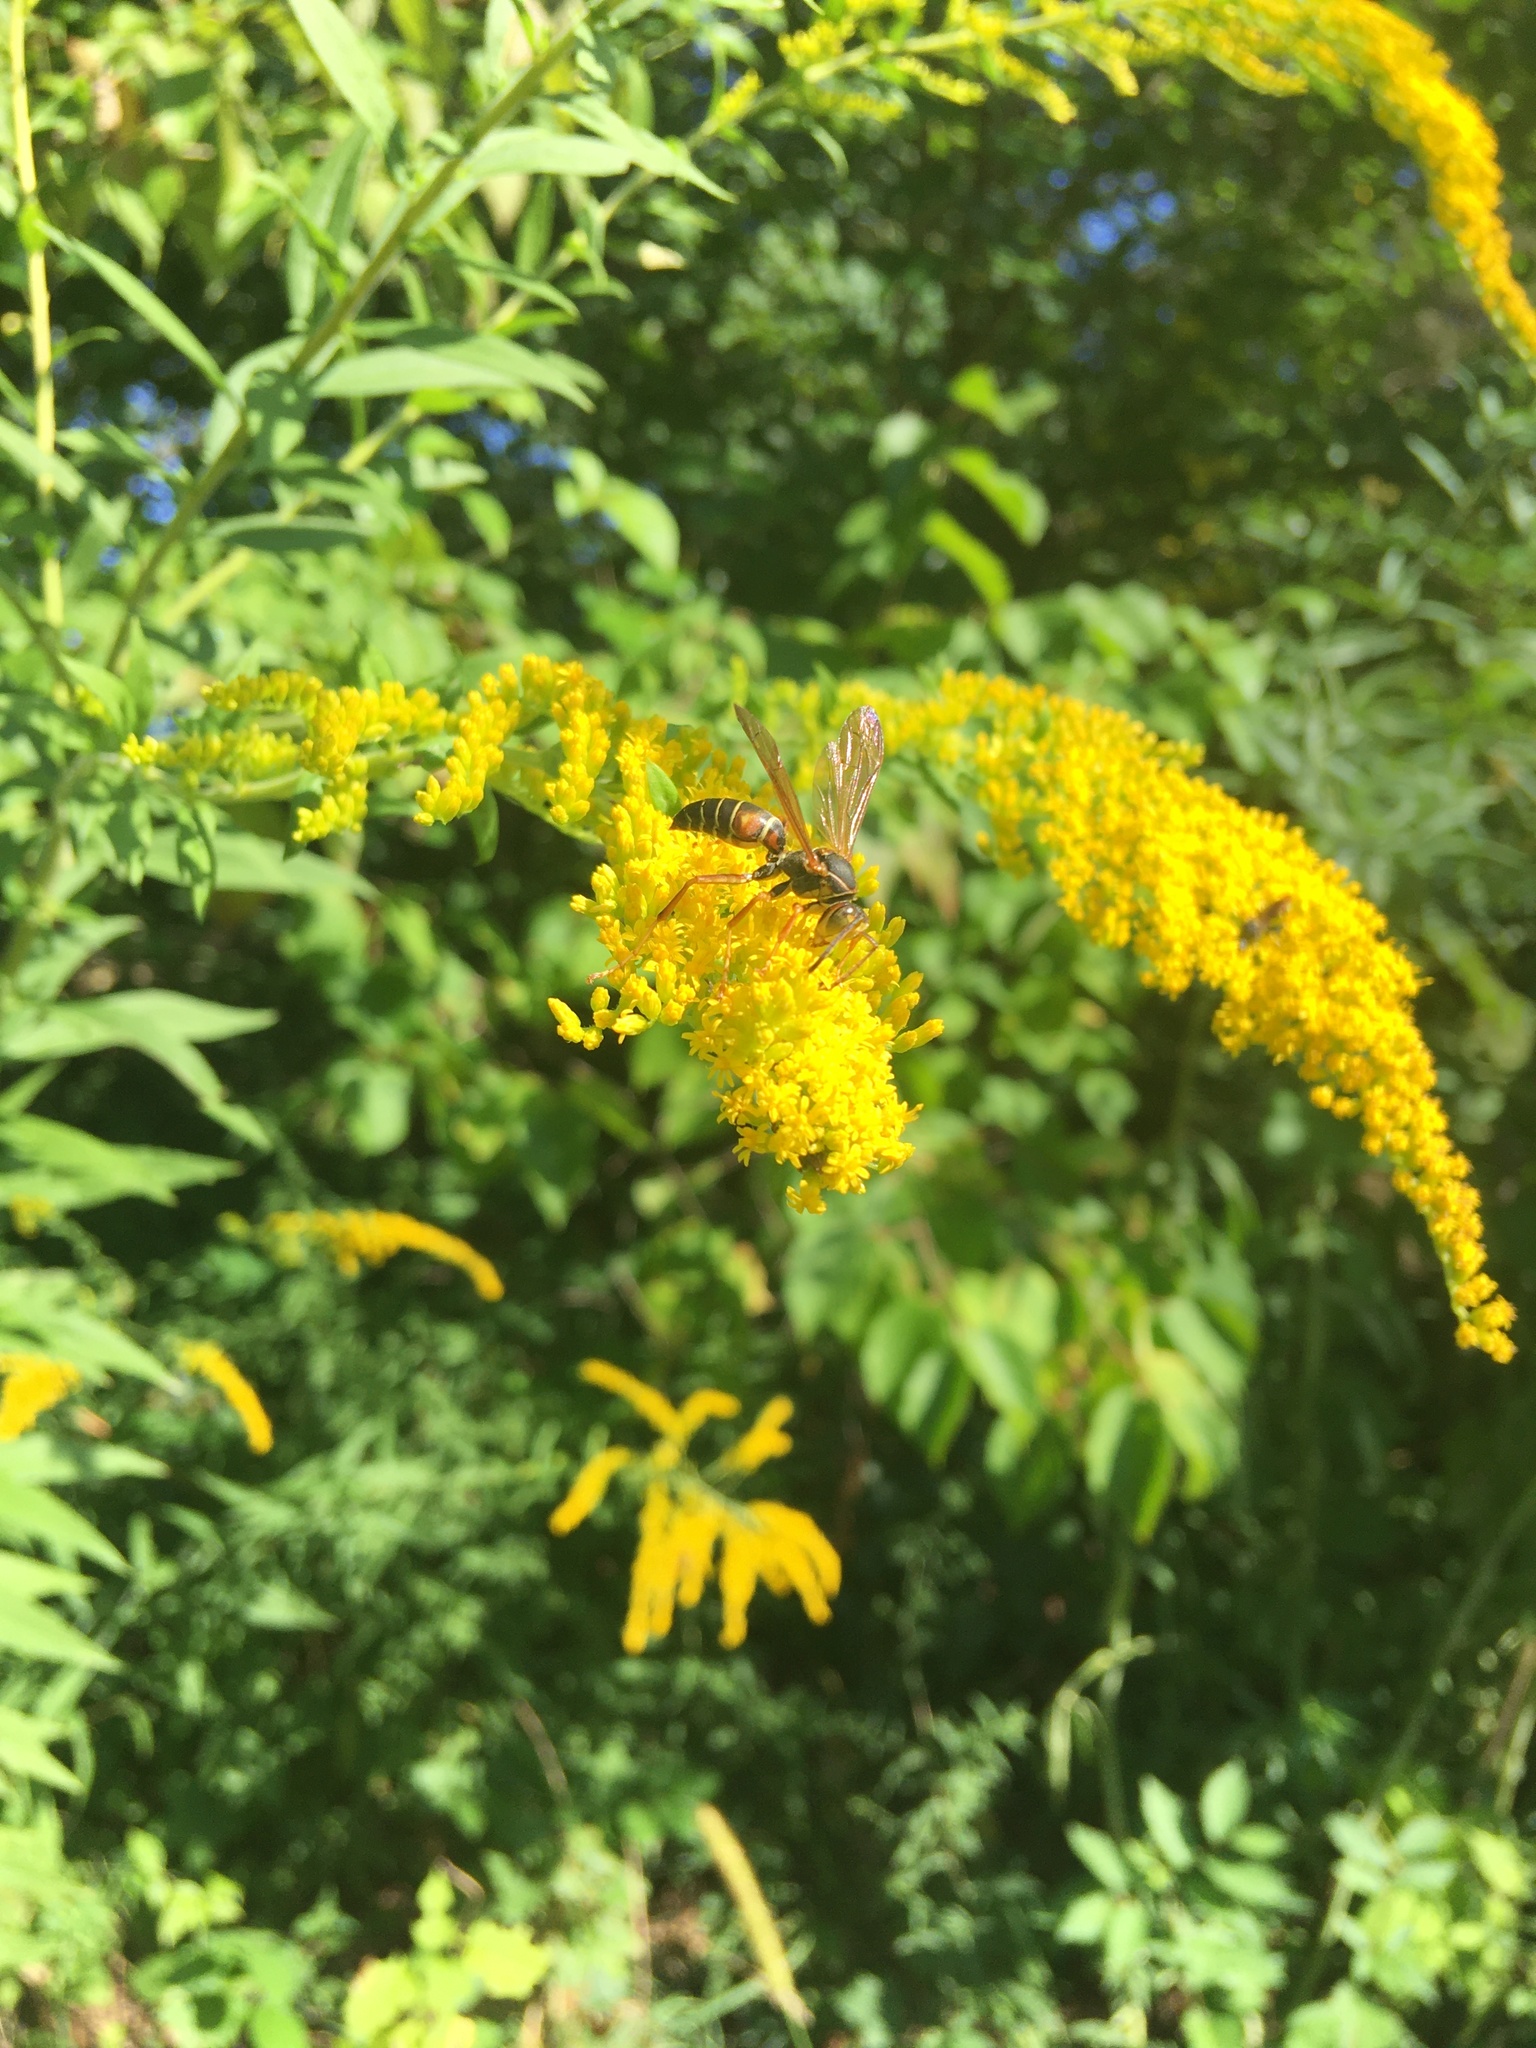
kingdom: Animalia
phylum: Arthropoda
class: Insecta
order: Hymenoptera
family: Eumenidae
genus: Polistes
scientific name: Polistes fuscatus
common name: Dark paper wasp
